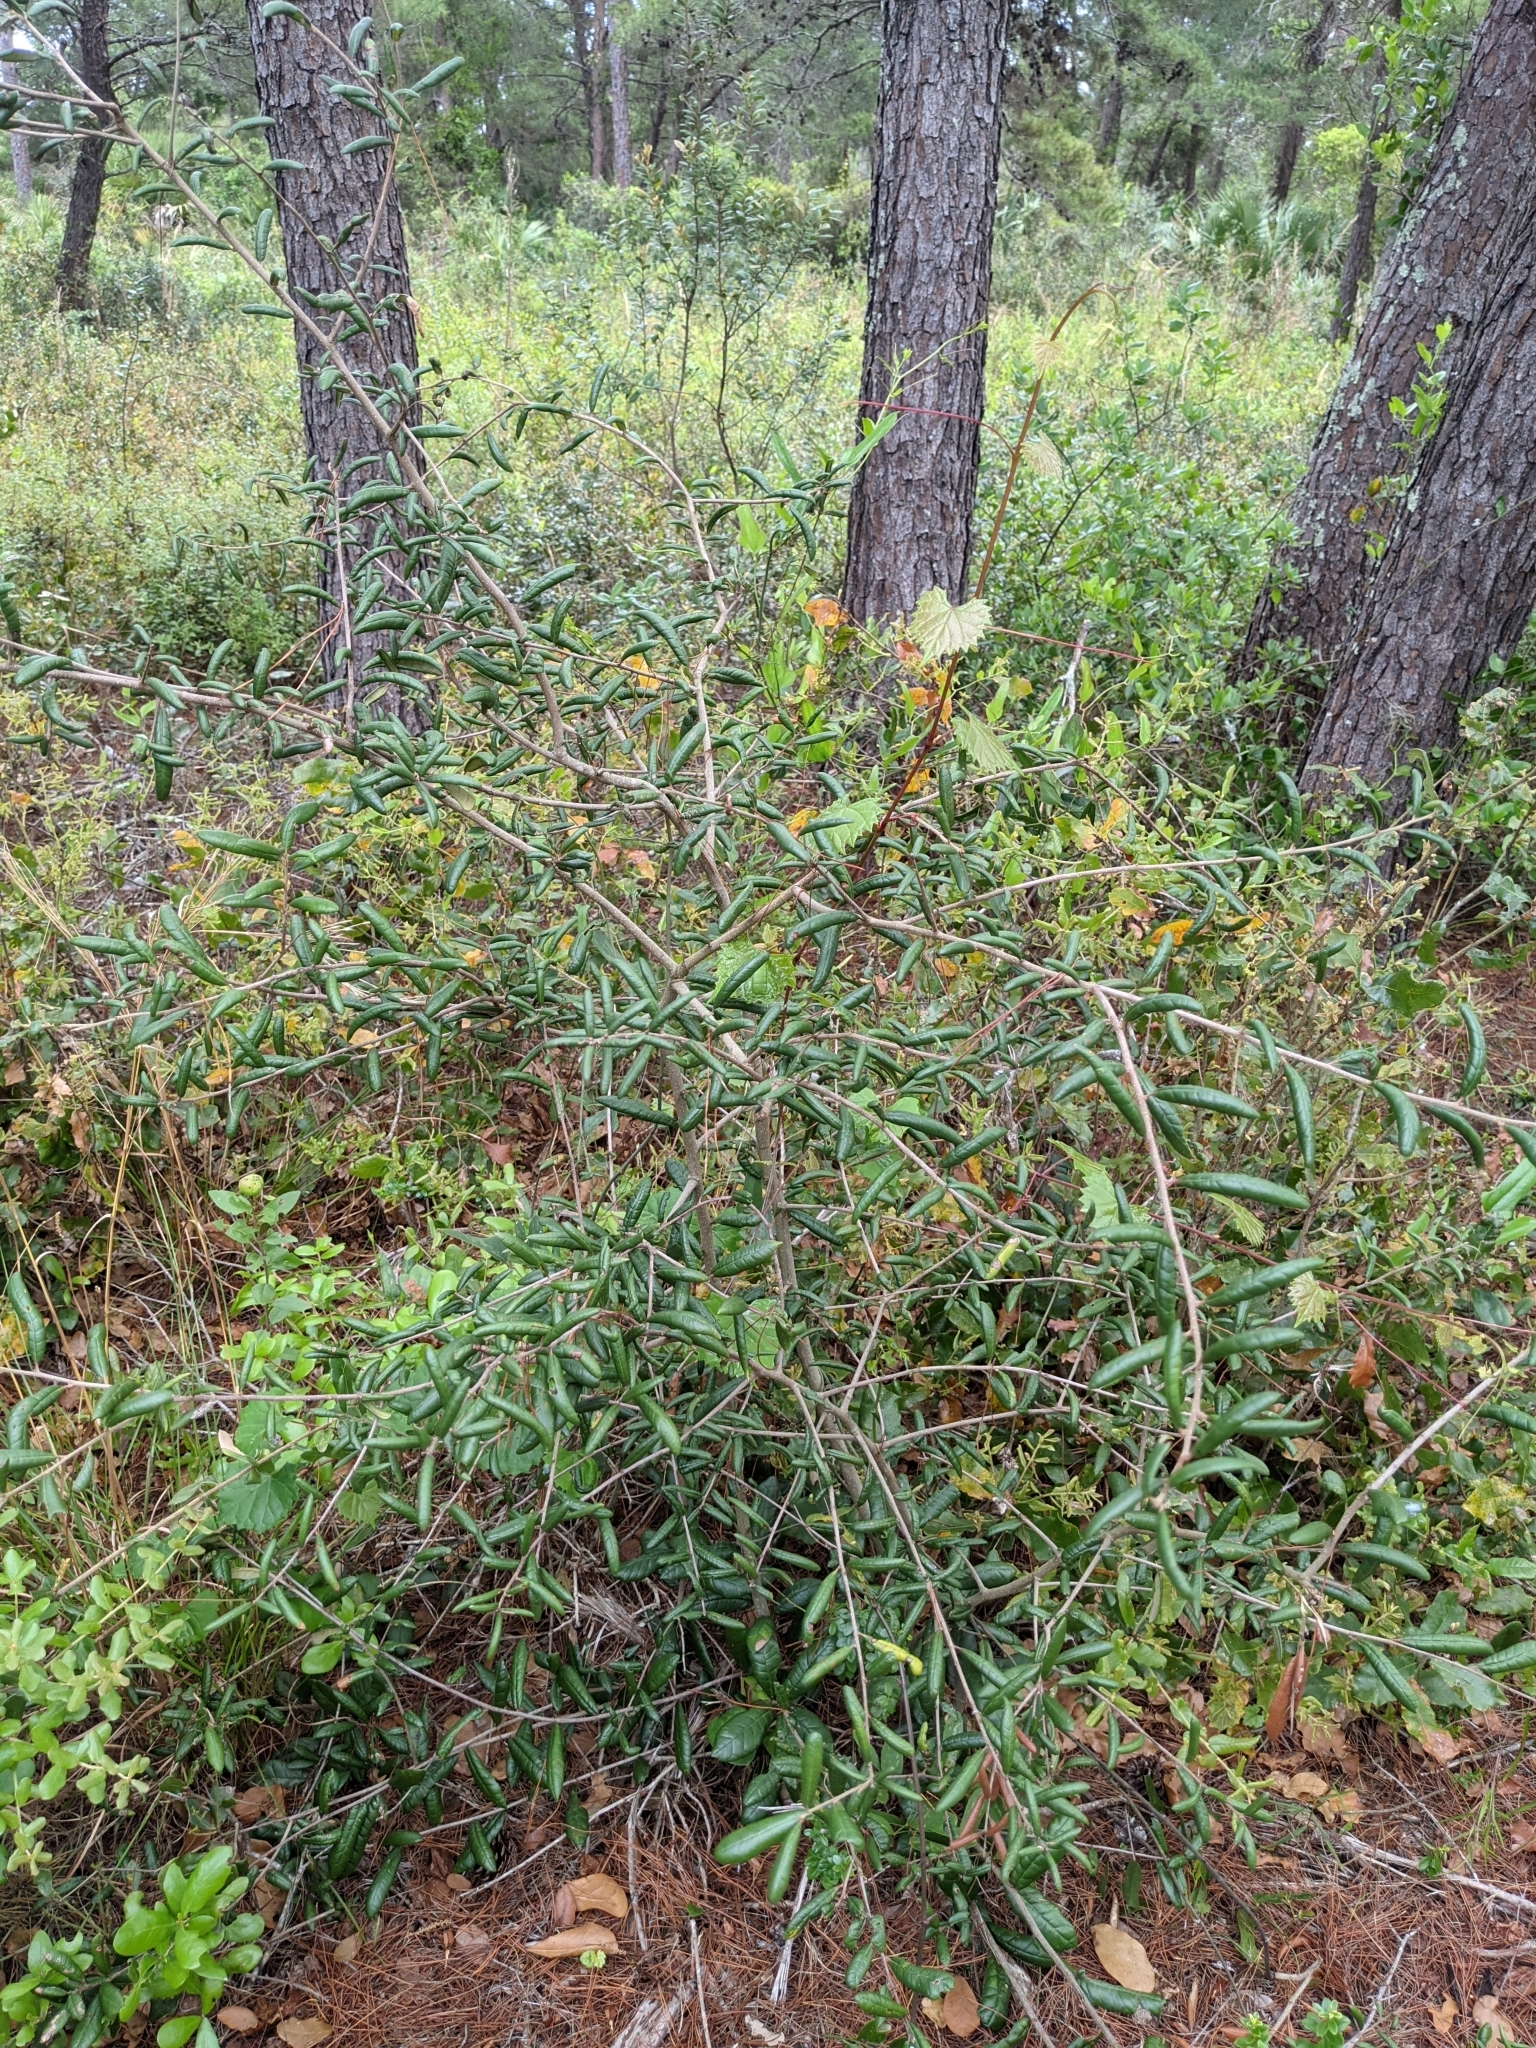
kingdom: Plantae
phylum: Tracheophyta
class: Magnoliopsida
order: Fagales
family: Fagaceae
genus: Quercus
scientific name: Quercus geminata
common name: Sand live oak
